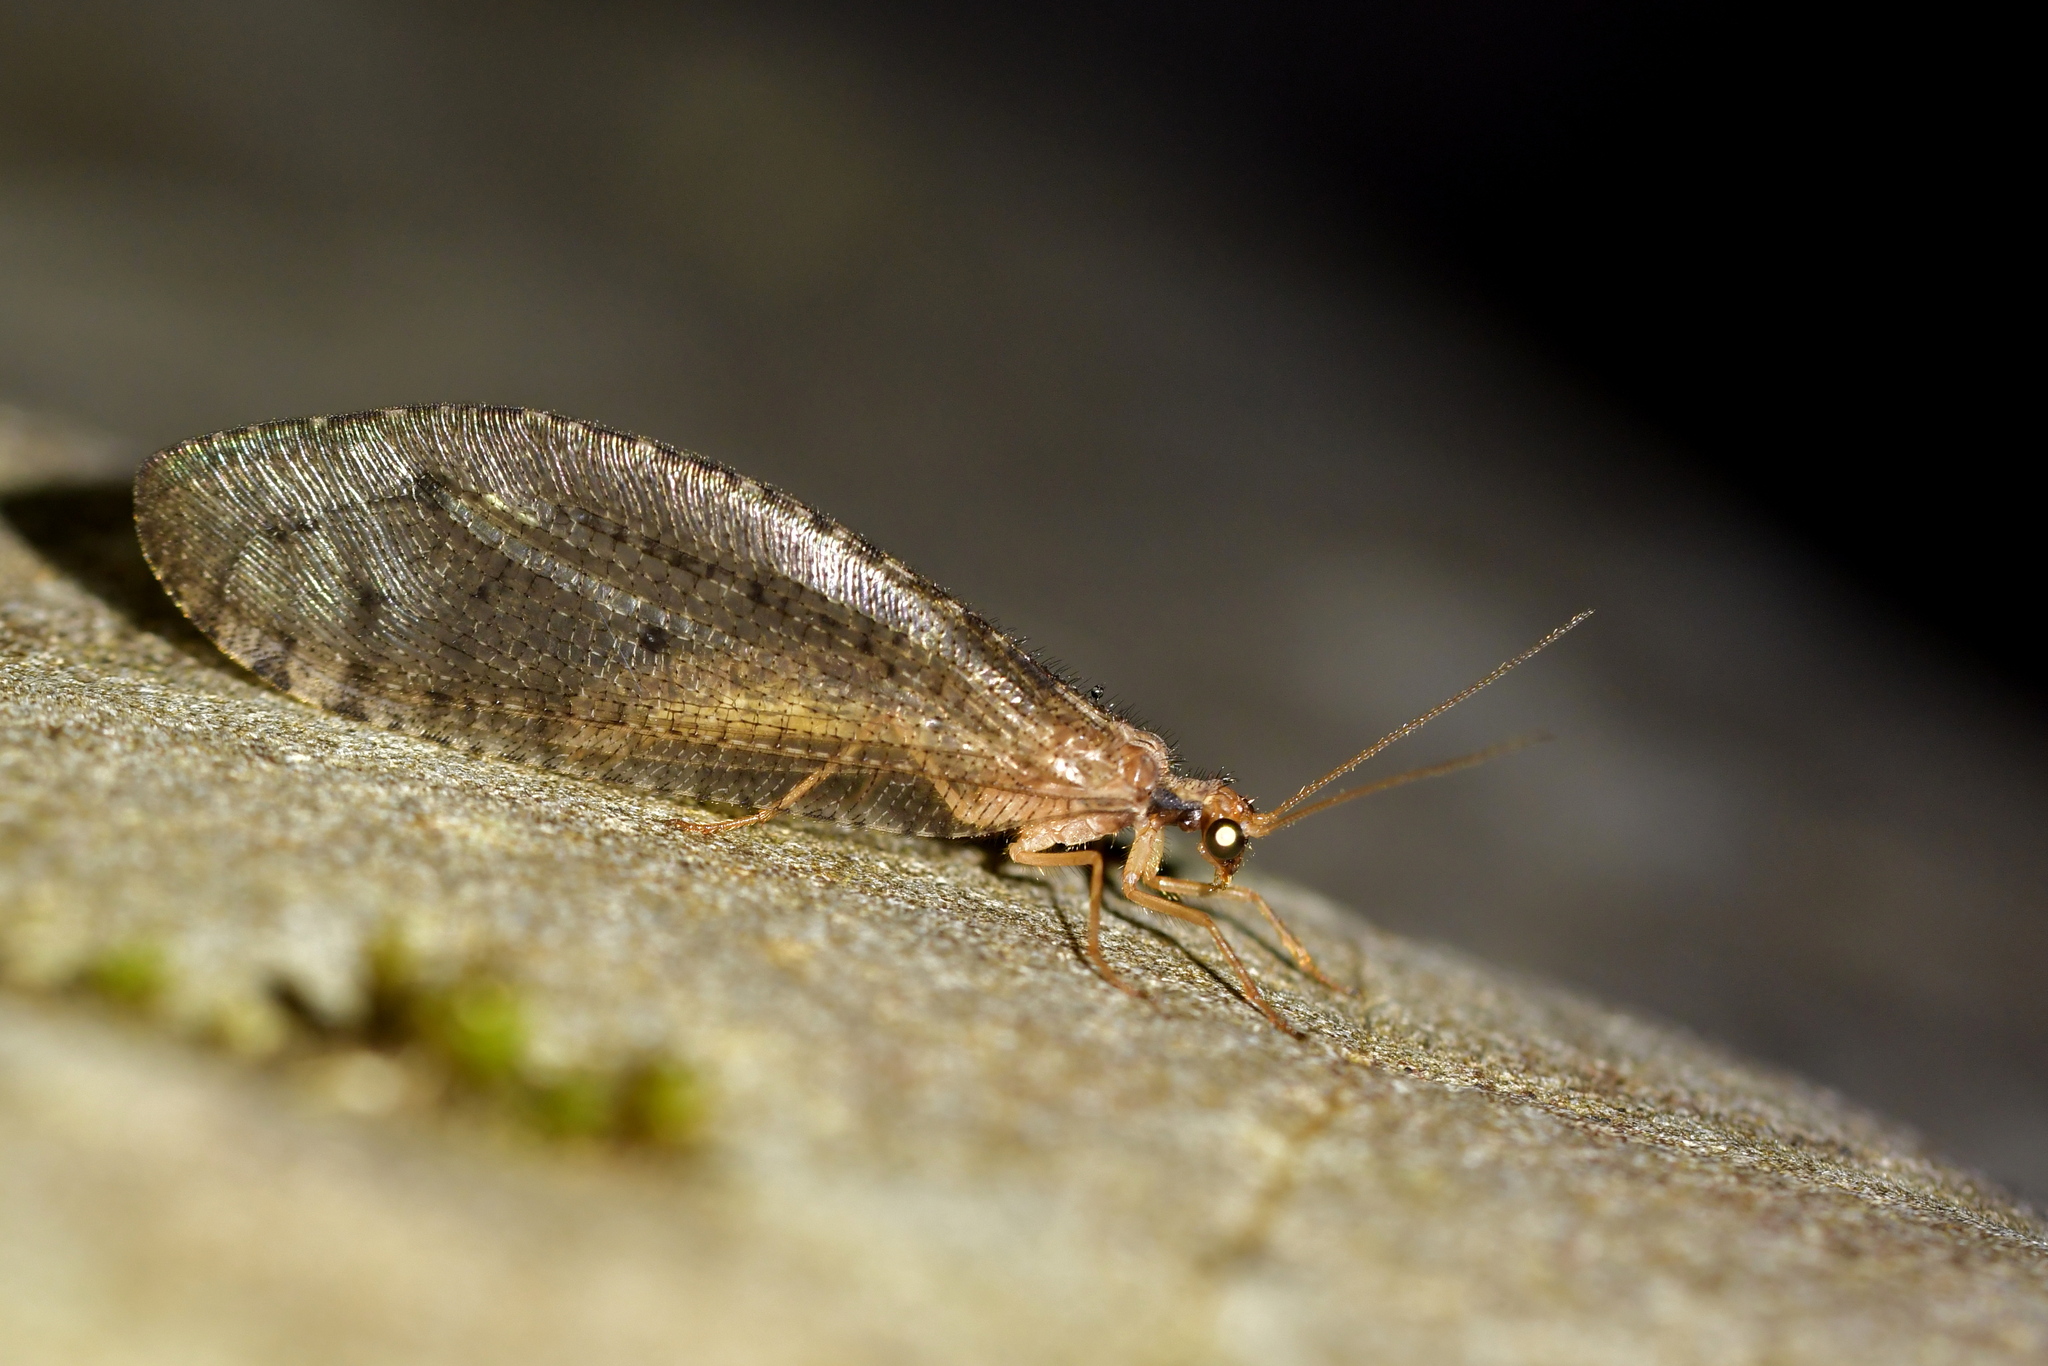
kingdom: Animalia
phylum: Arthropoda
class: Insecta
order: Neuroptera
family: Osmylidae
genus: Kempynus
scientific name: Kempynus latiusculus
